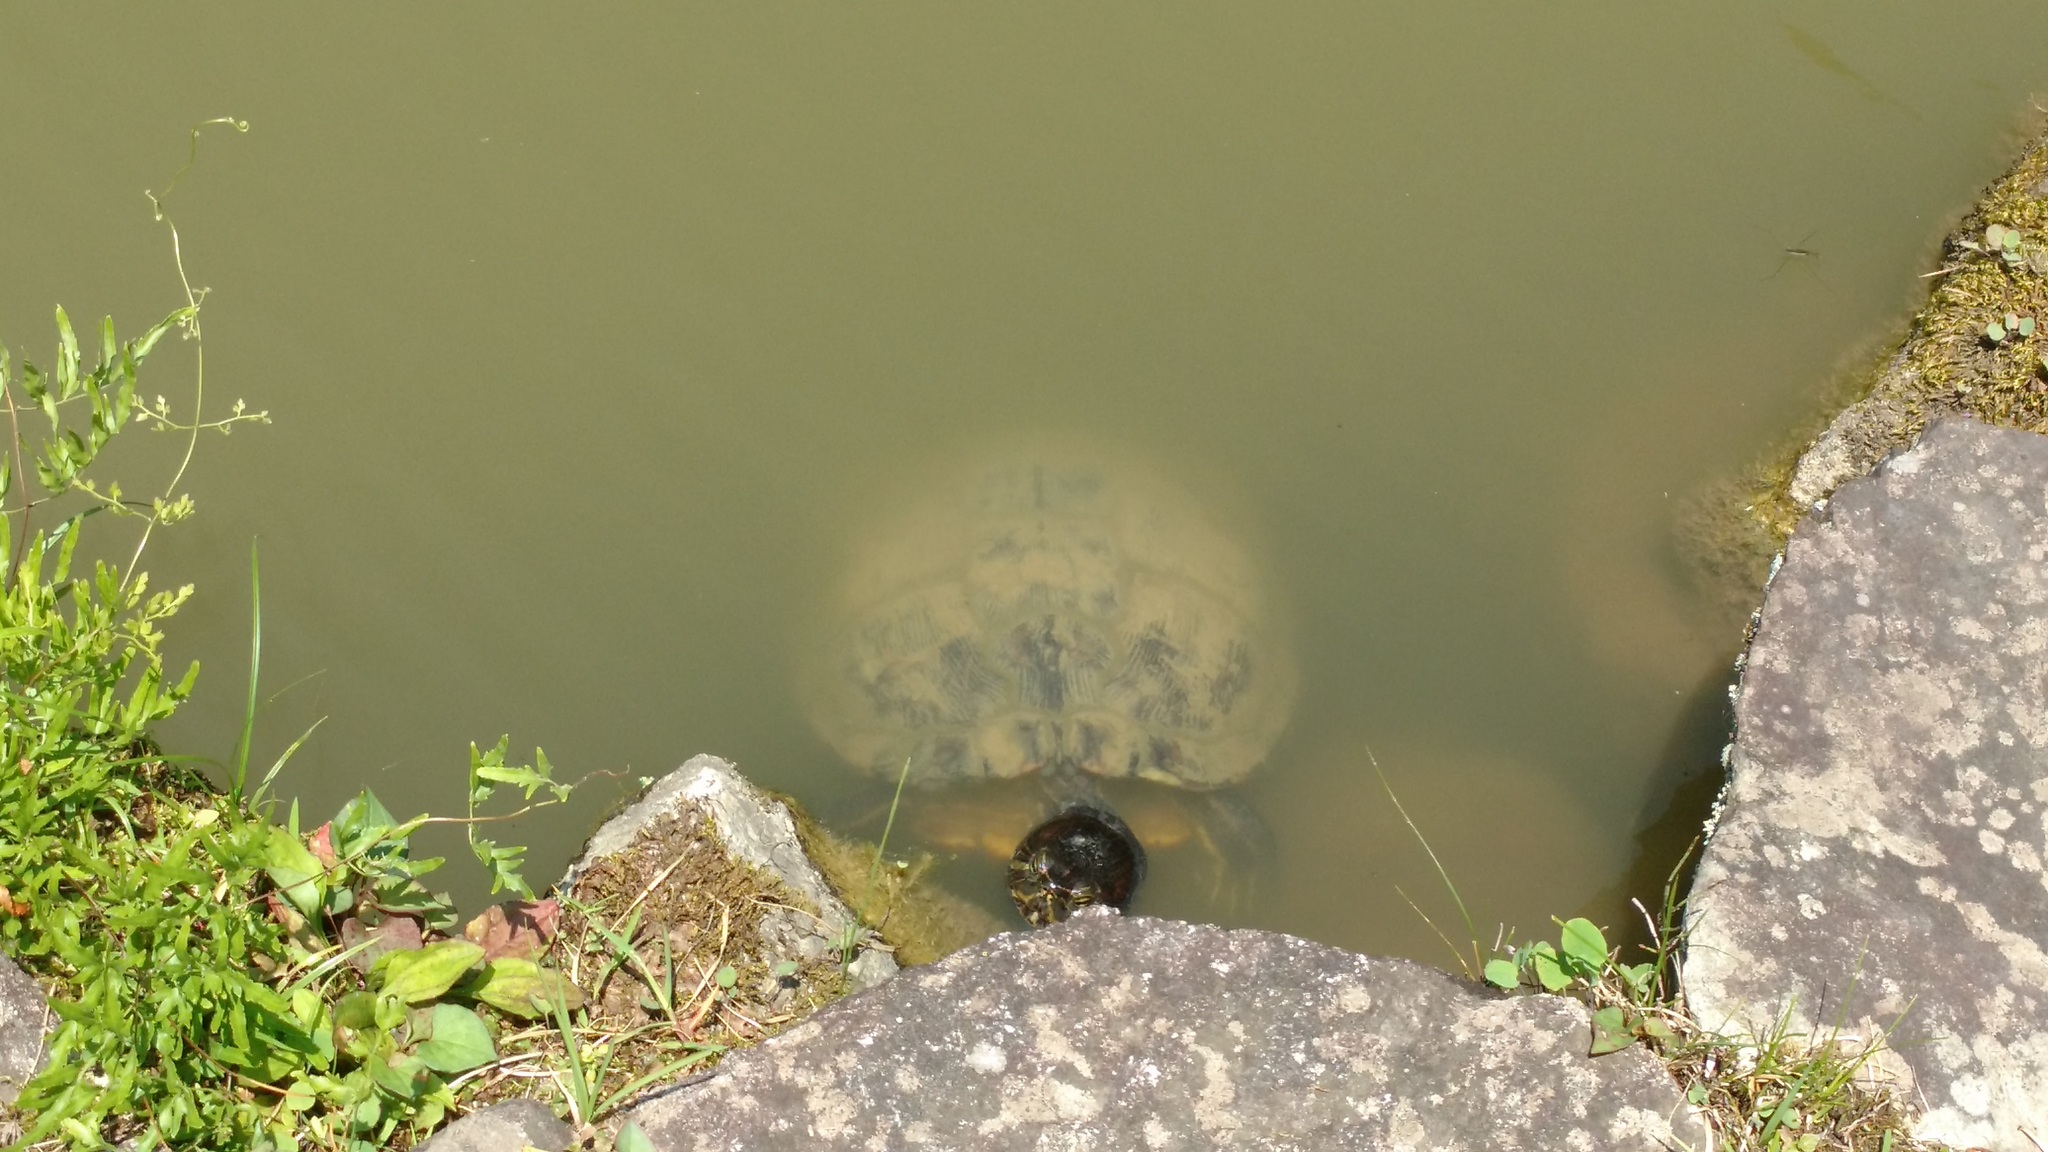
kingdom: Animalia
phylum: Chordata
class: Testudines
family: Emydidae
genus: Trachemys
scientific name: Trachemys scripta
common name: Slider
